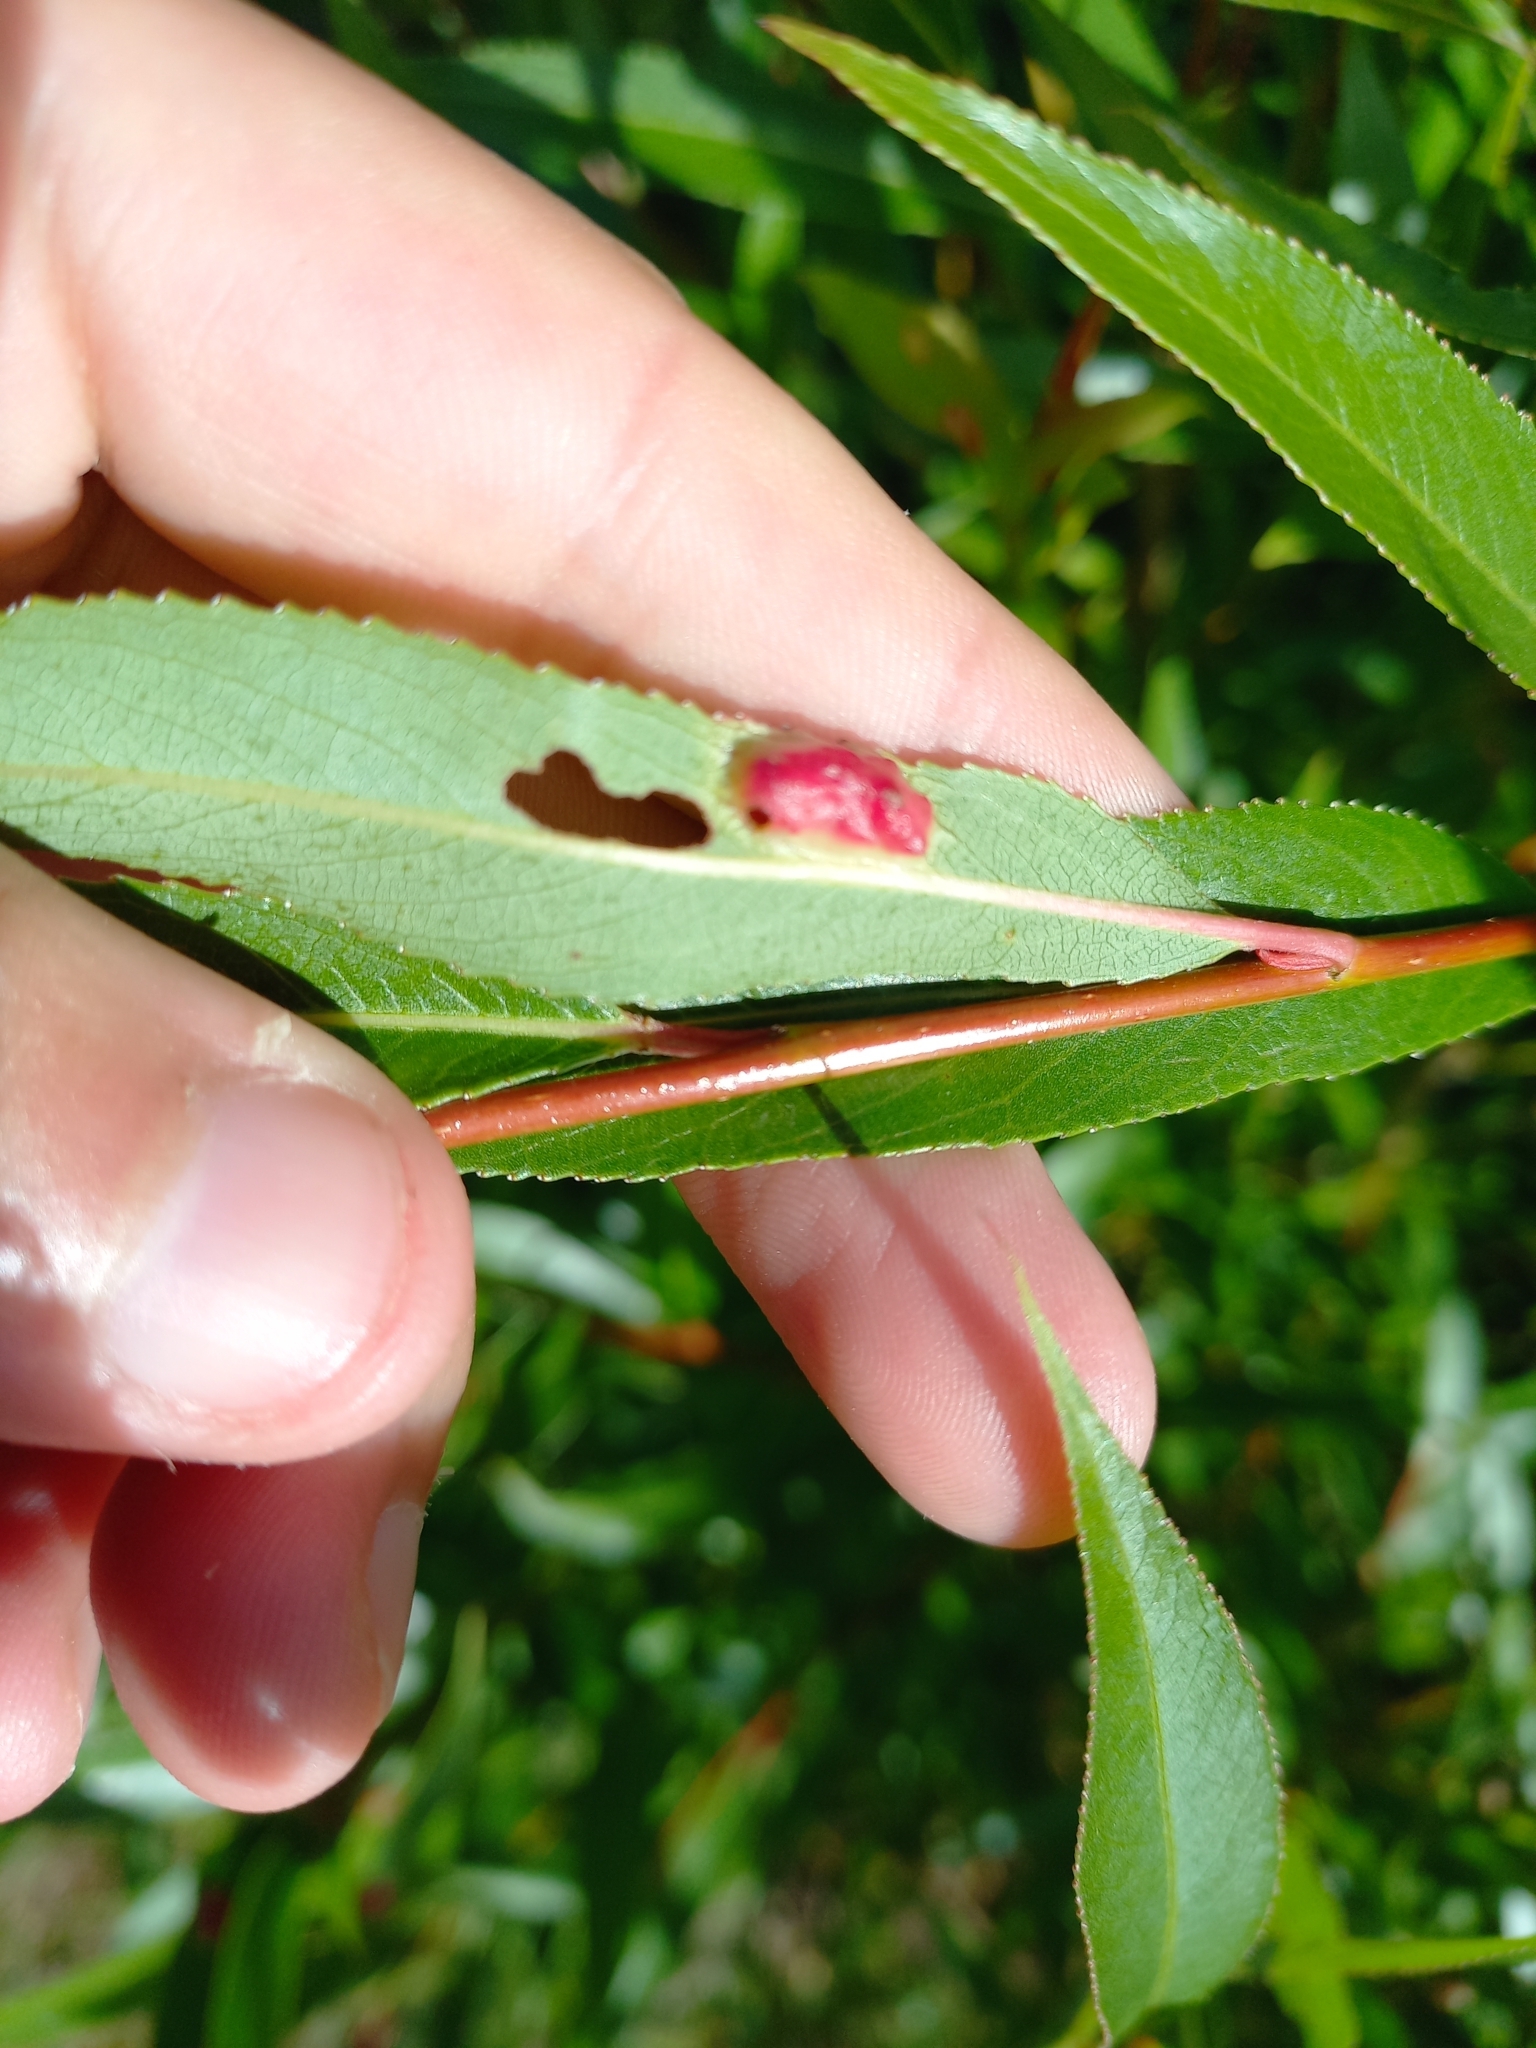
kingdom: Animalia
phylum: Arthropoda
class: Insecta
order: Hymenoptera
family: Tenthredinidae
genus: Pontania
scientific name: Pontania proxima
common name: Common sawfly
